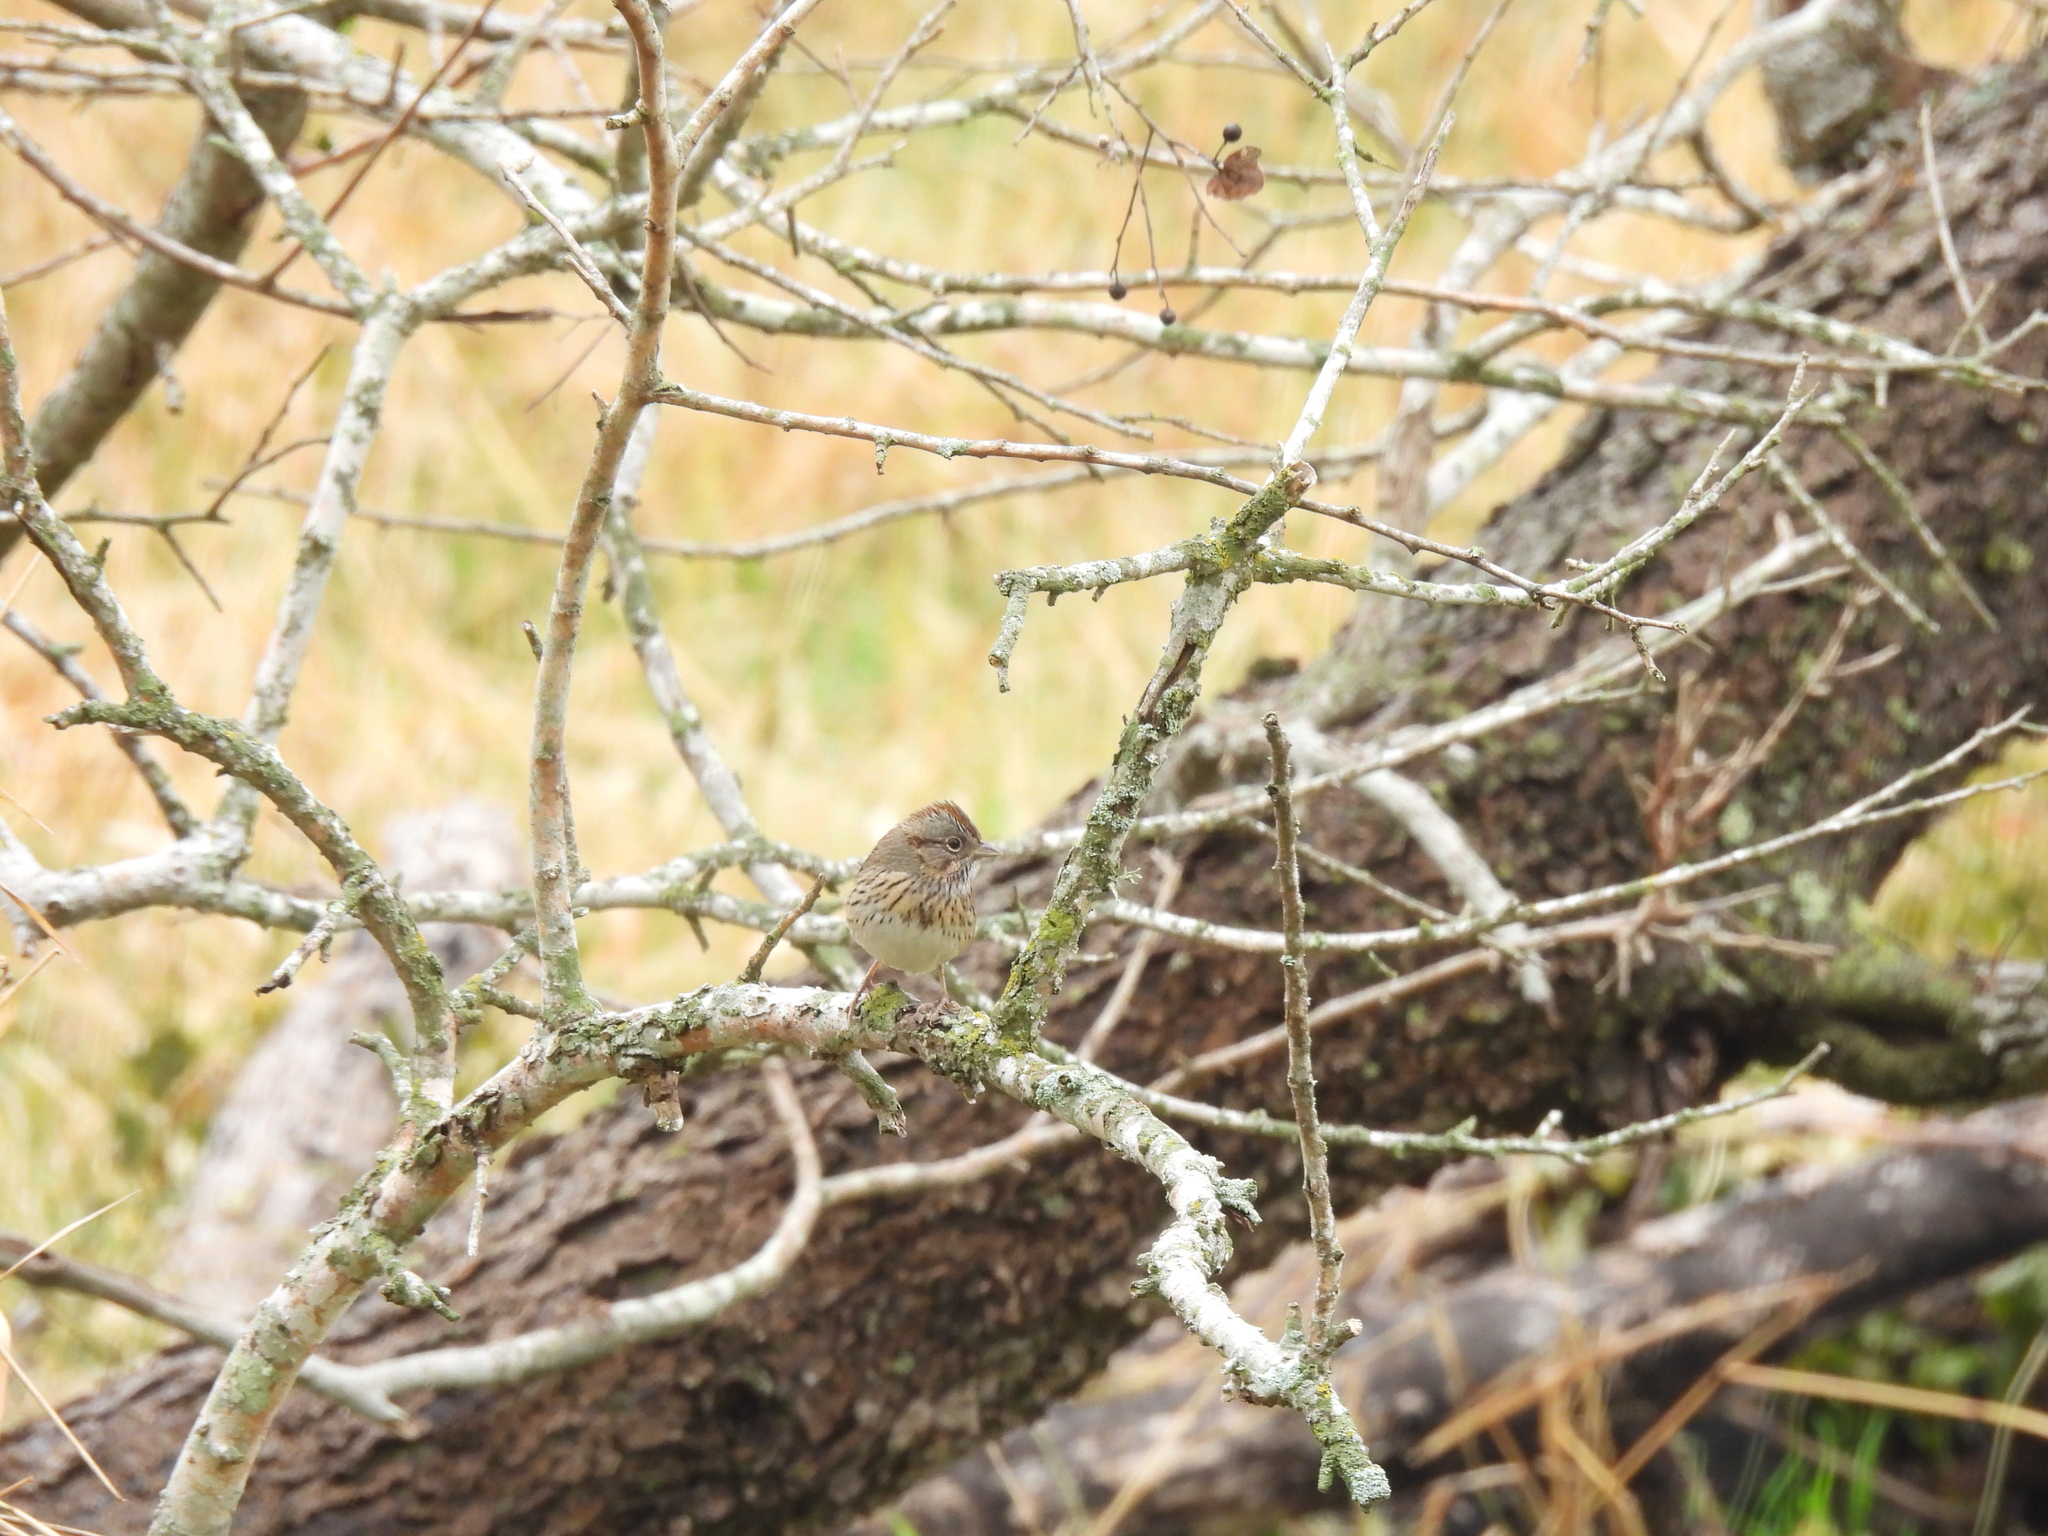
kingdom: Animalia
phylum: Chordata
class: Aves
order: Passeriformes
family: Passerellidae
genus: Melospiza
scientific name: Melospiza lincolnii
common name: Lincoln's sparrow
